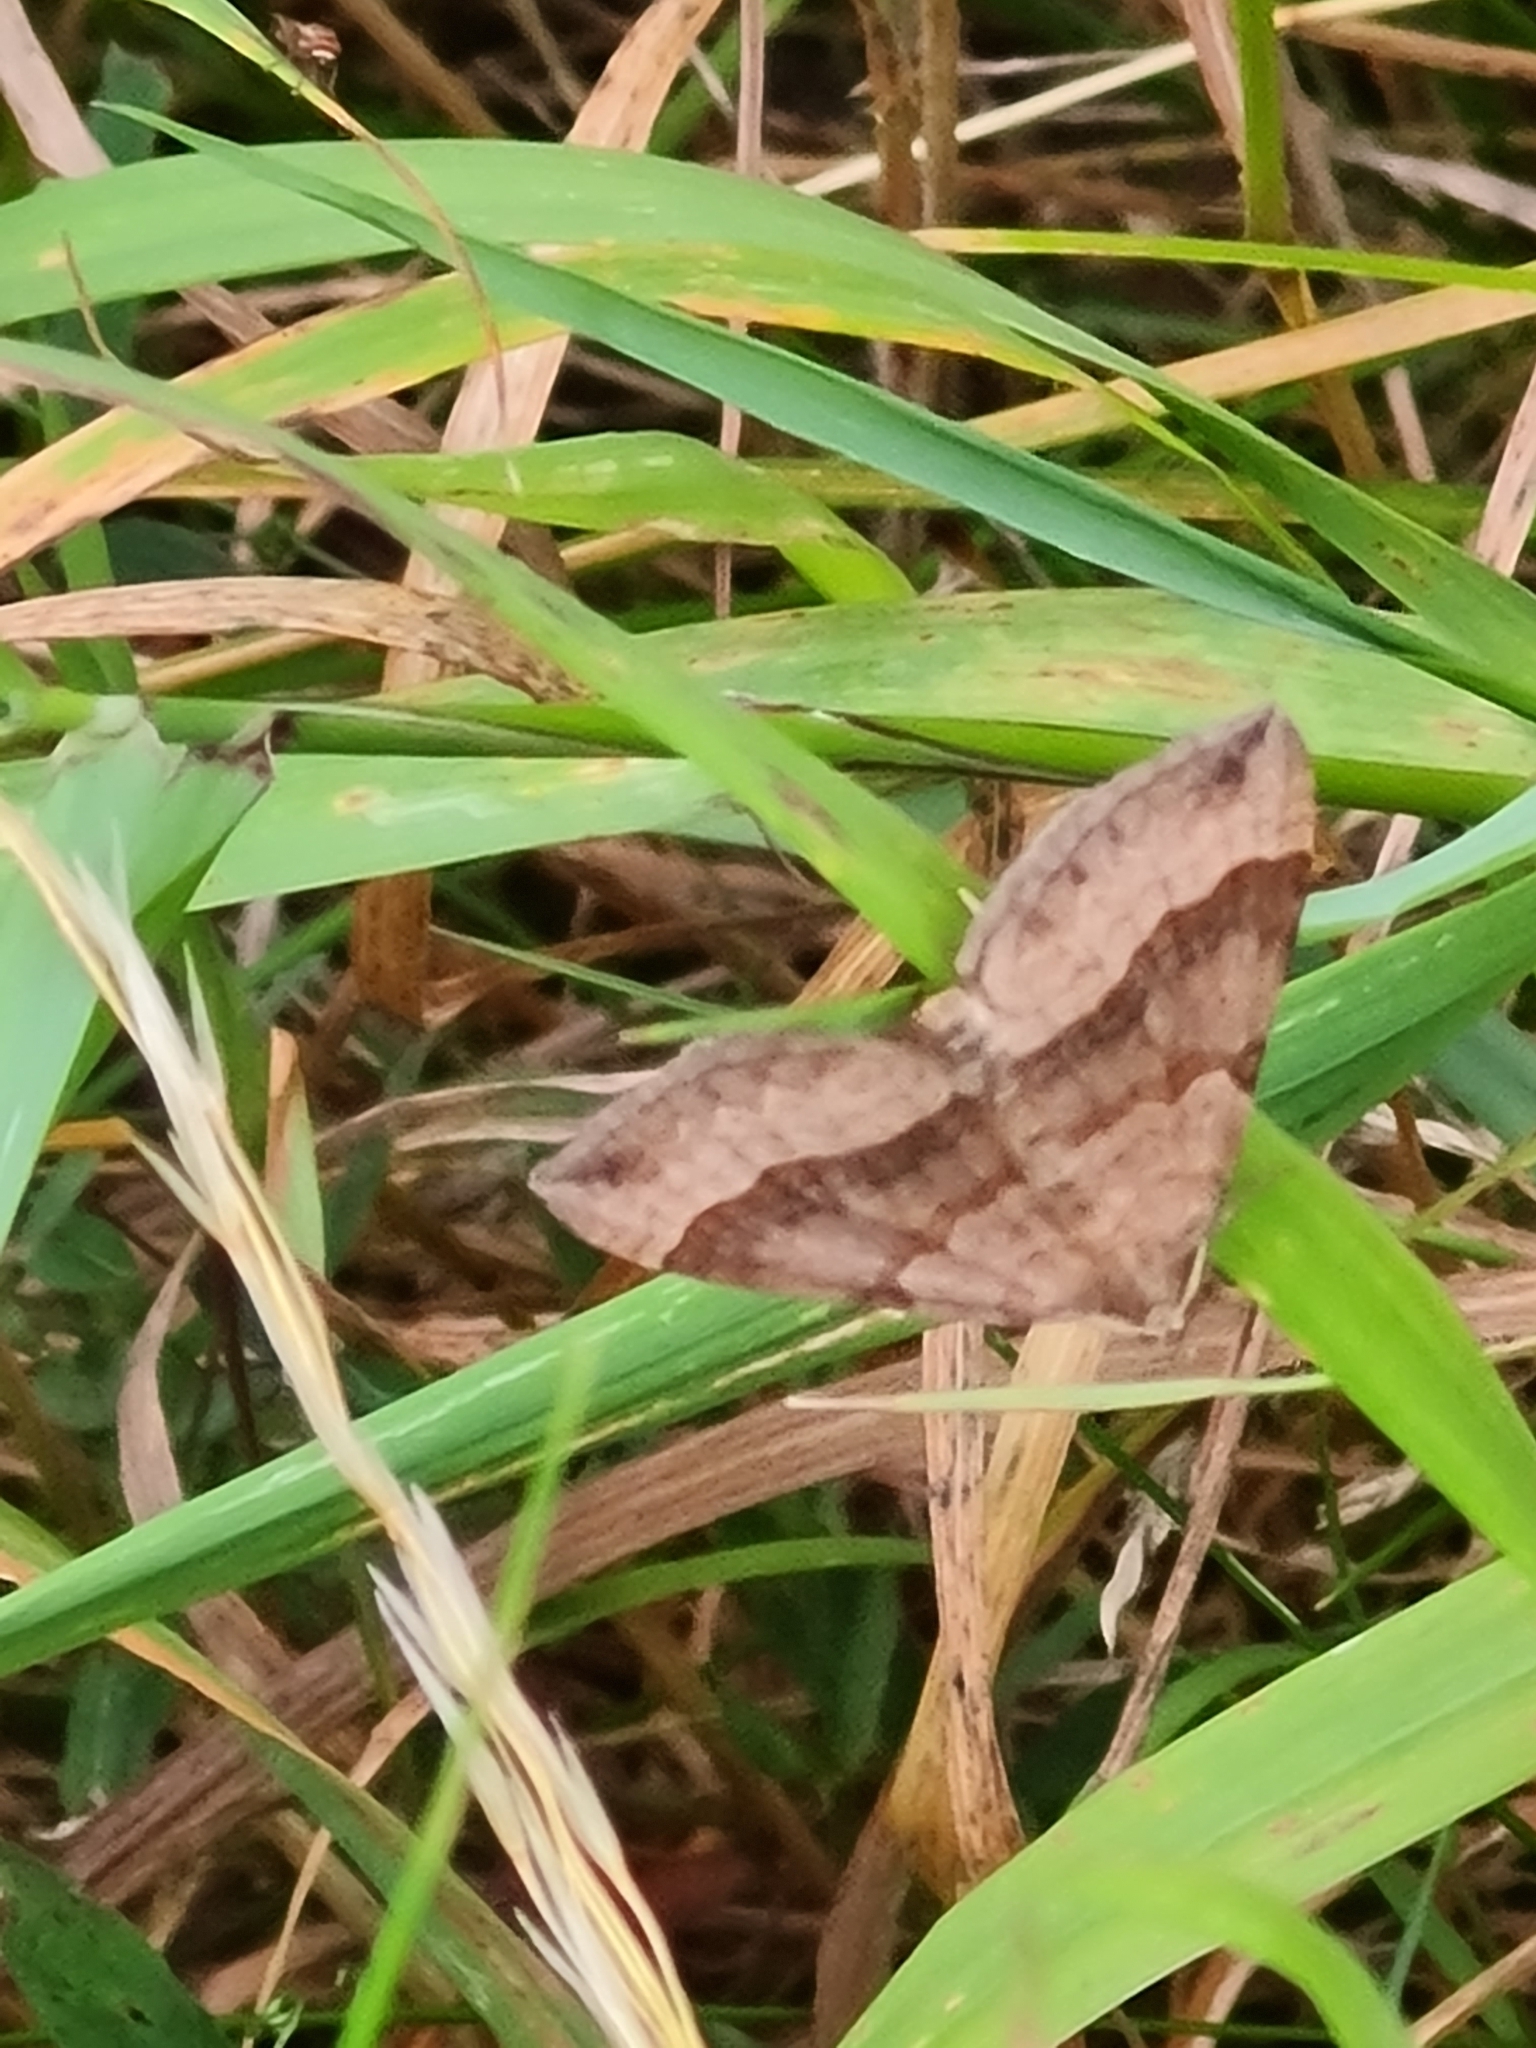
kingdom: Animalia
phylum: Arthropoda
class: Insecta
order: Lepidoptera
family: Geometridae
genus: Scotopteryx
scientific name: Scotopteryx chenopodiata
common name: Shaded broad-bar
